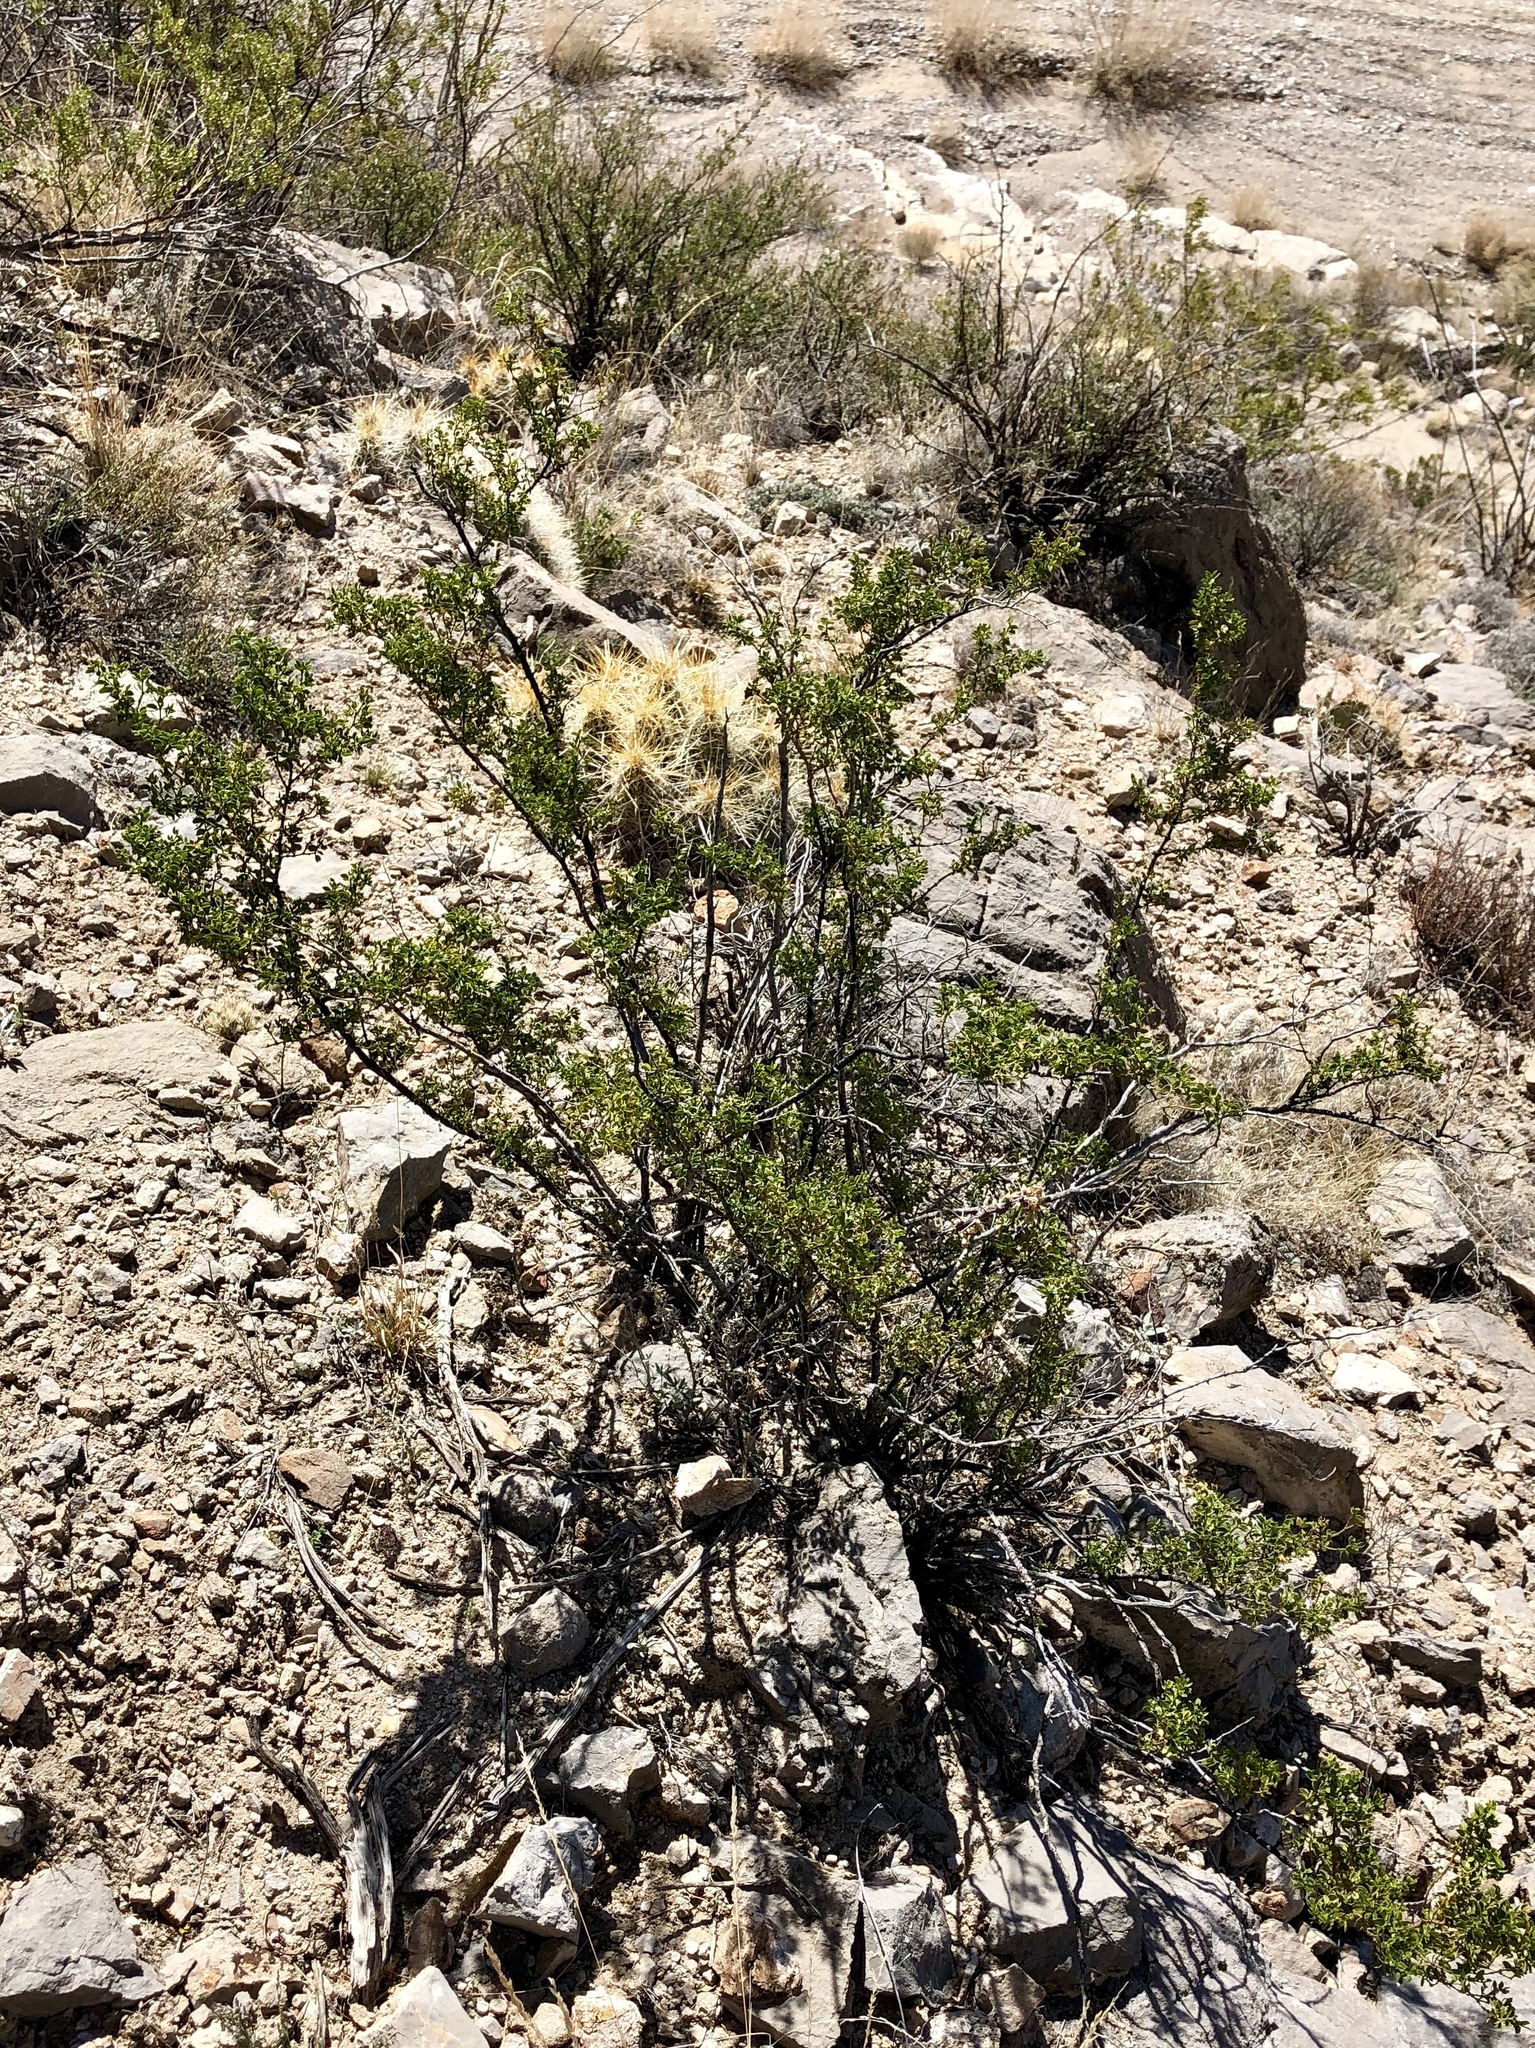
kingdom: Plantae
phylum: Tracheophyta
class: Magnoliopsida
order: Zygophyllales
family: Zygophyllaceae
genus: Larrea
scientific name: Larrea tridentata
